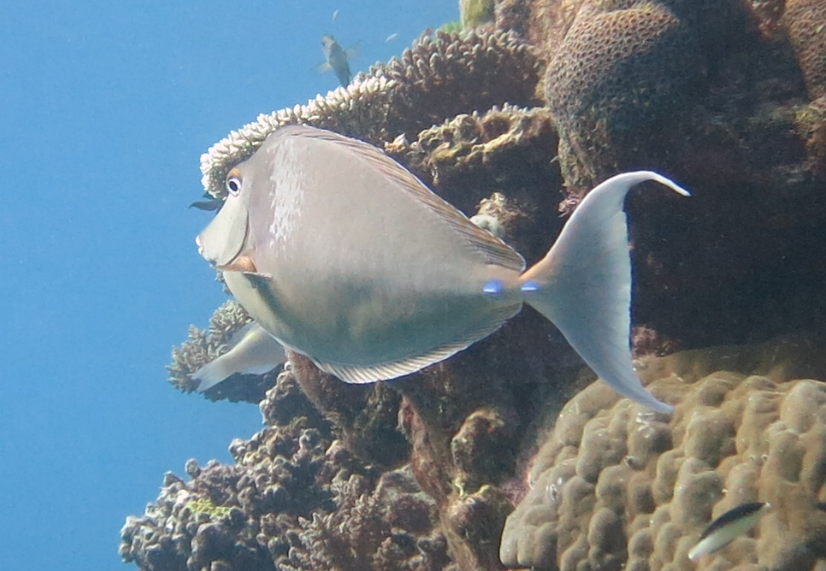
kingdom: Animalia
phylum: Chordata
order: Perciformes
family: Acanthuridae
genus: Naso
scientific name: Naso unicornis
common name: Bluespine unicornfish
